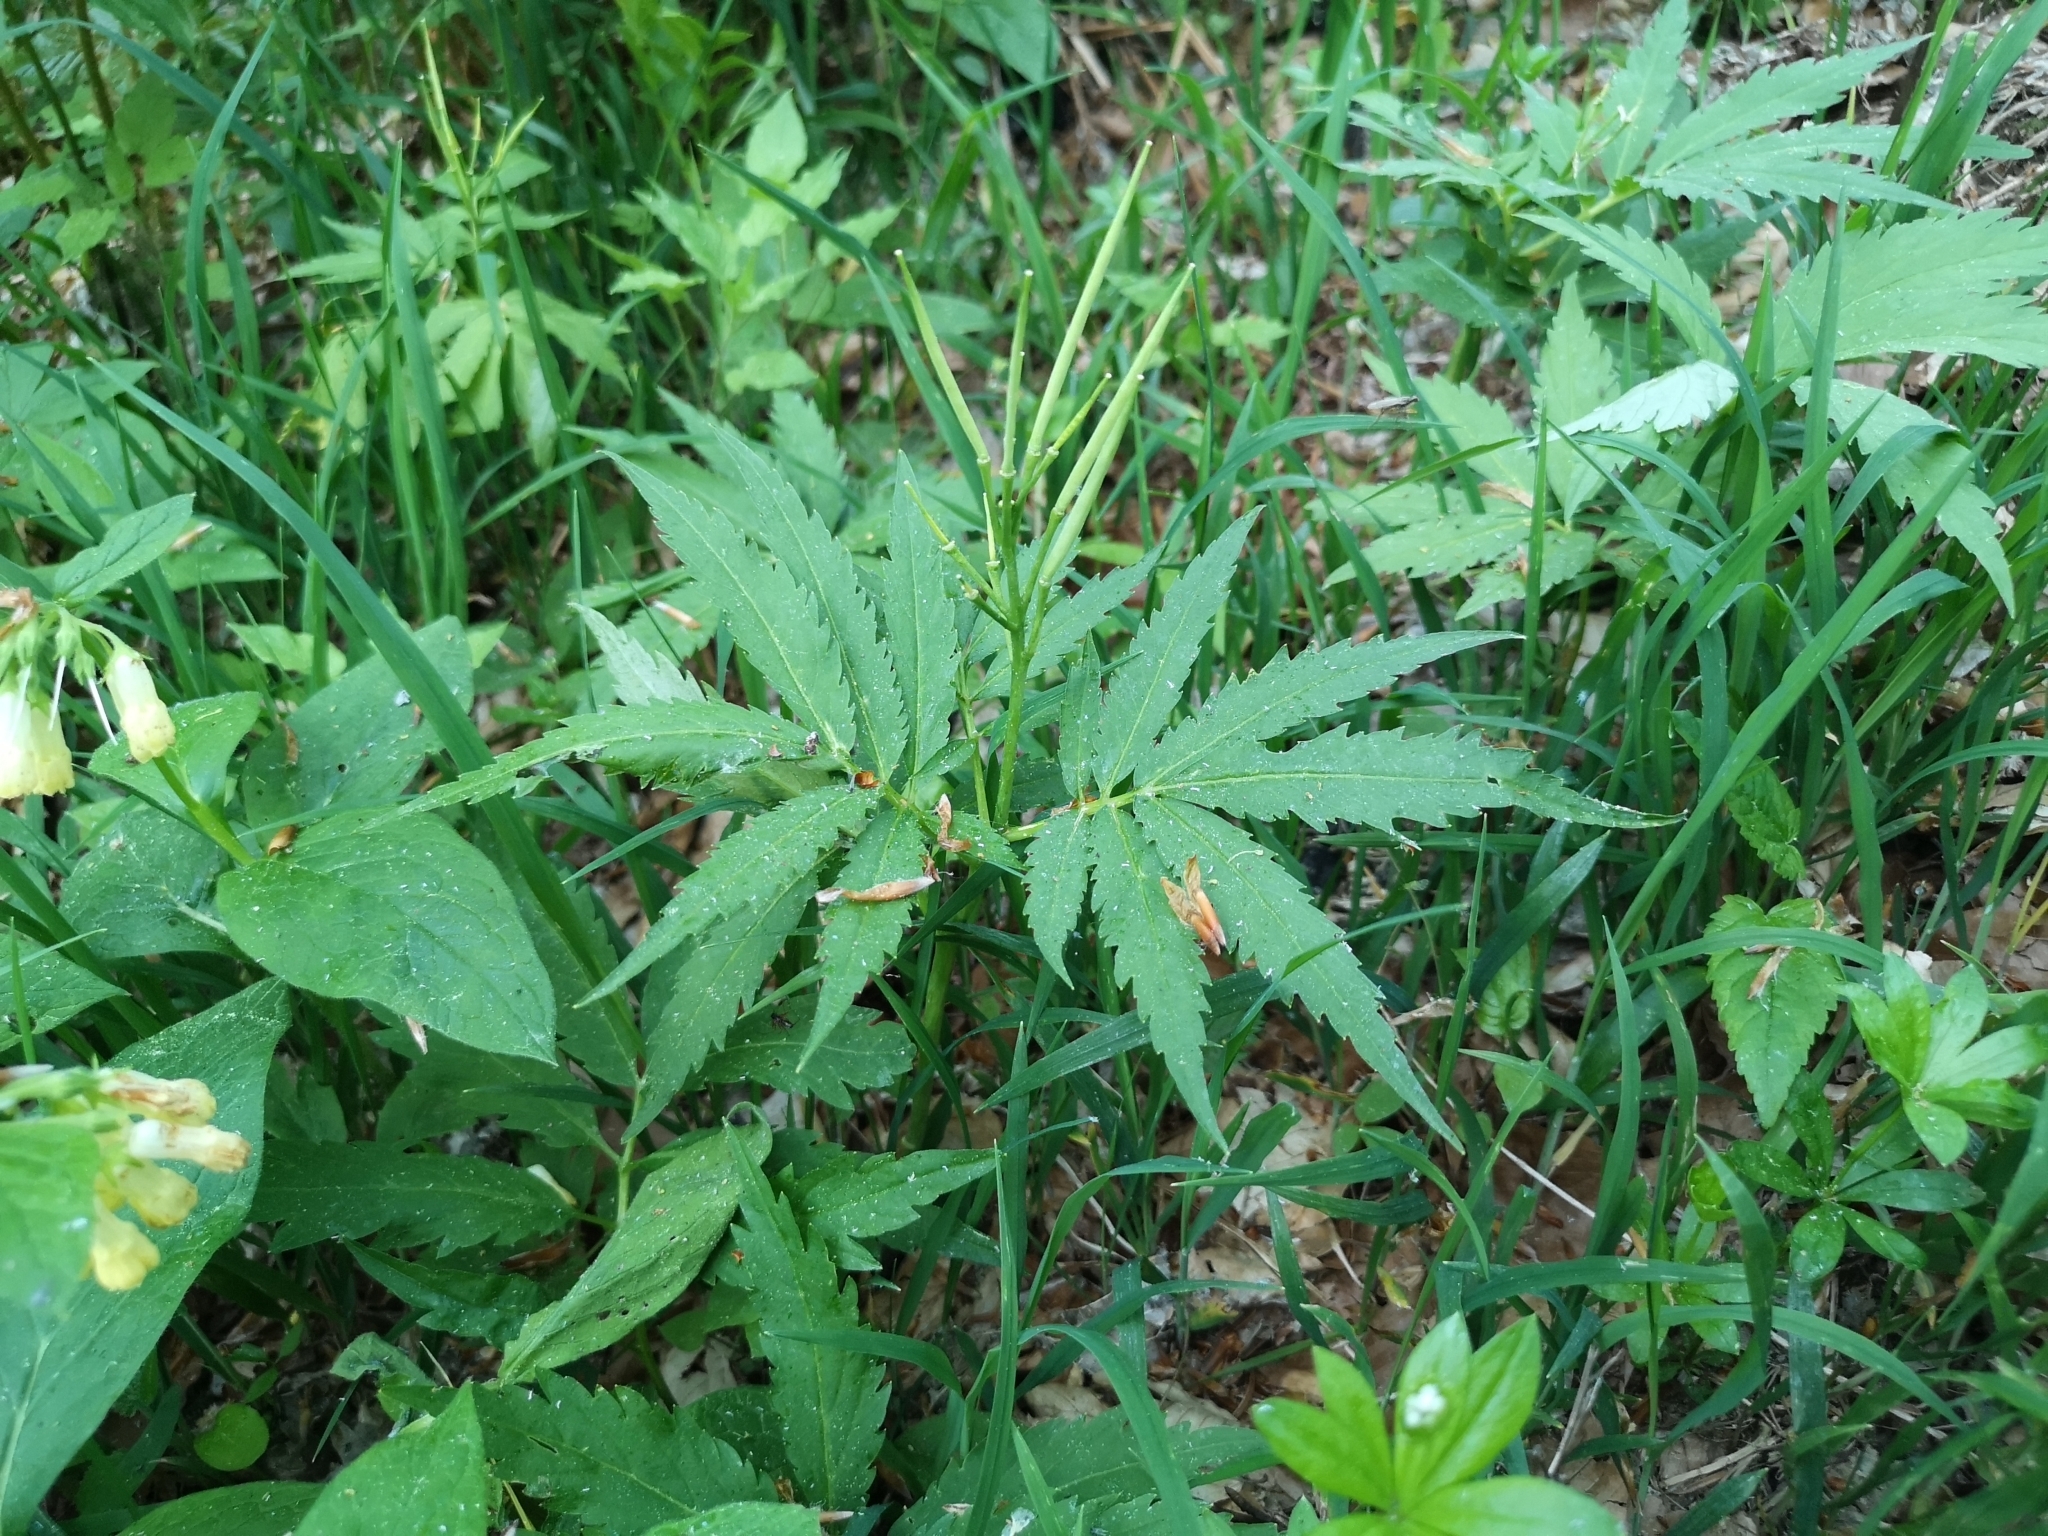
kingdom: Plantae
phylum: Tracheophyta
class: Magnoliopsida
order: Brassicales
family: Brassicaceae
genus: Cardamine
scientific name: Cardamine kitaibelii
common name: Kitaibel's bitter-cress
